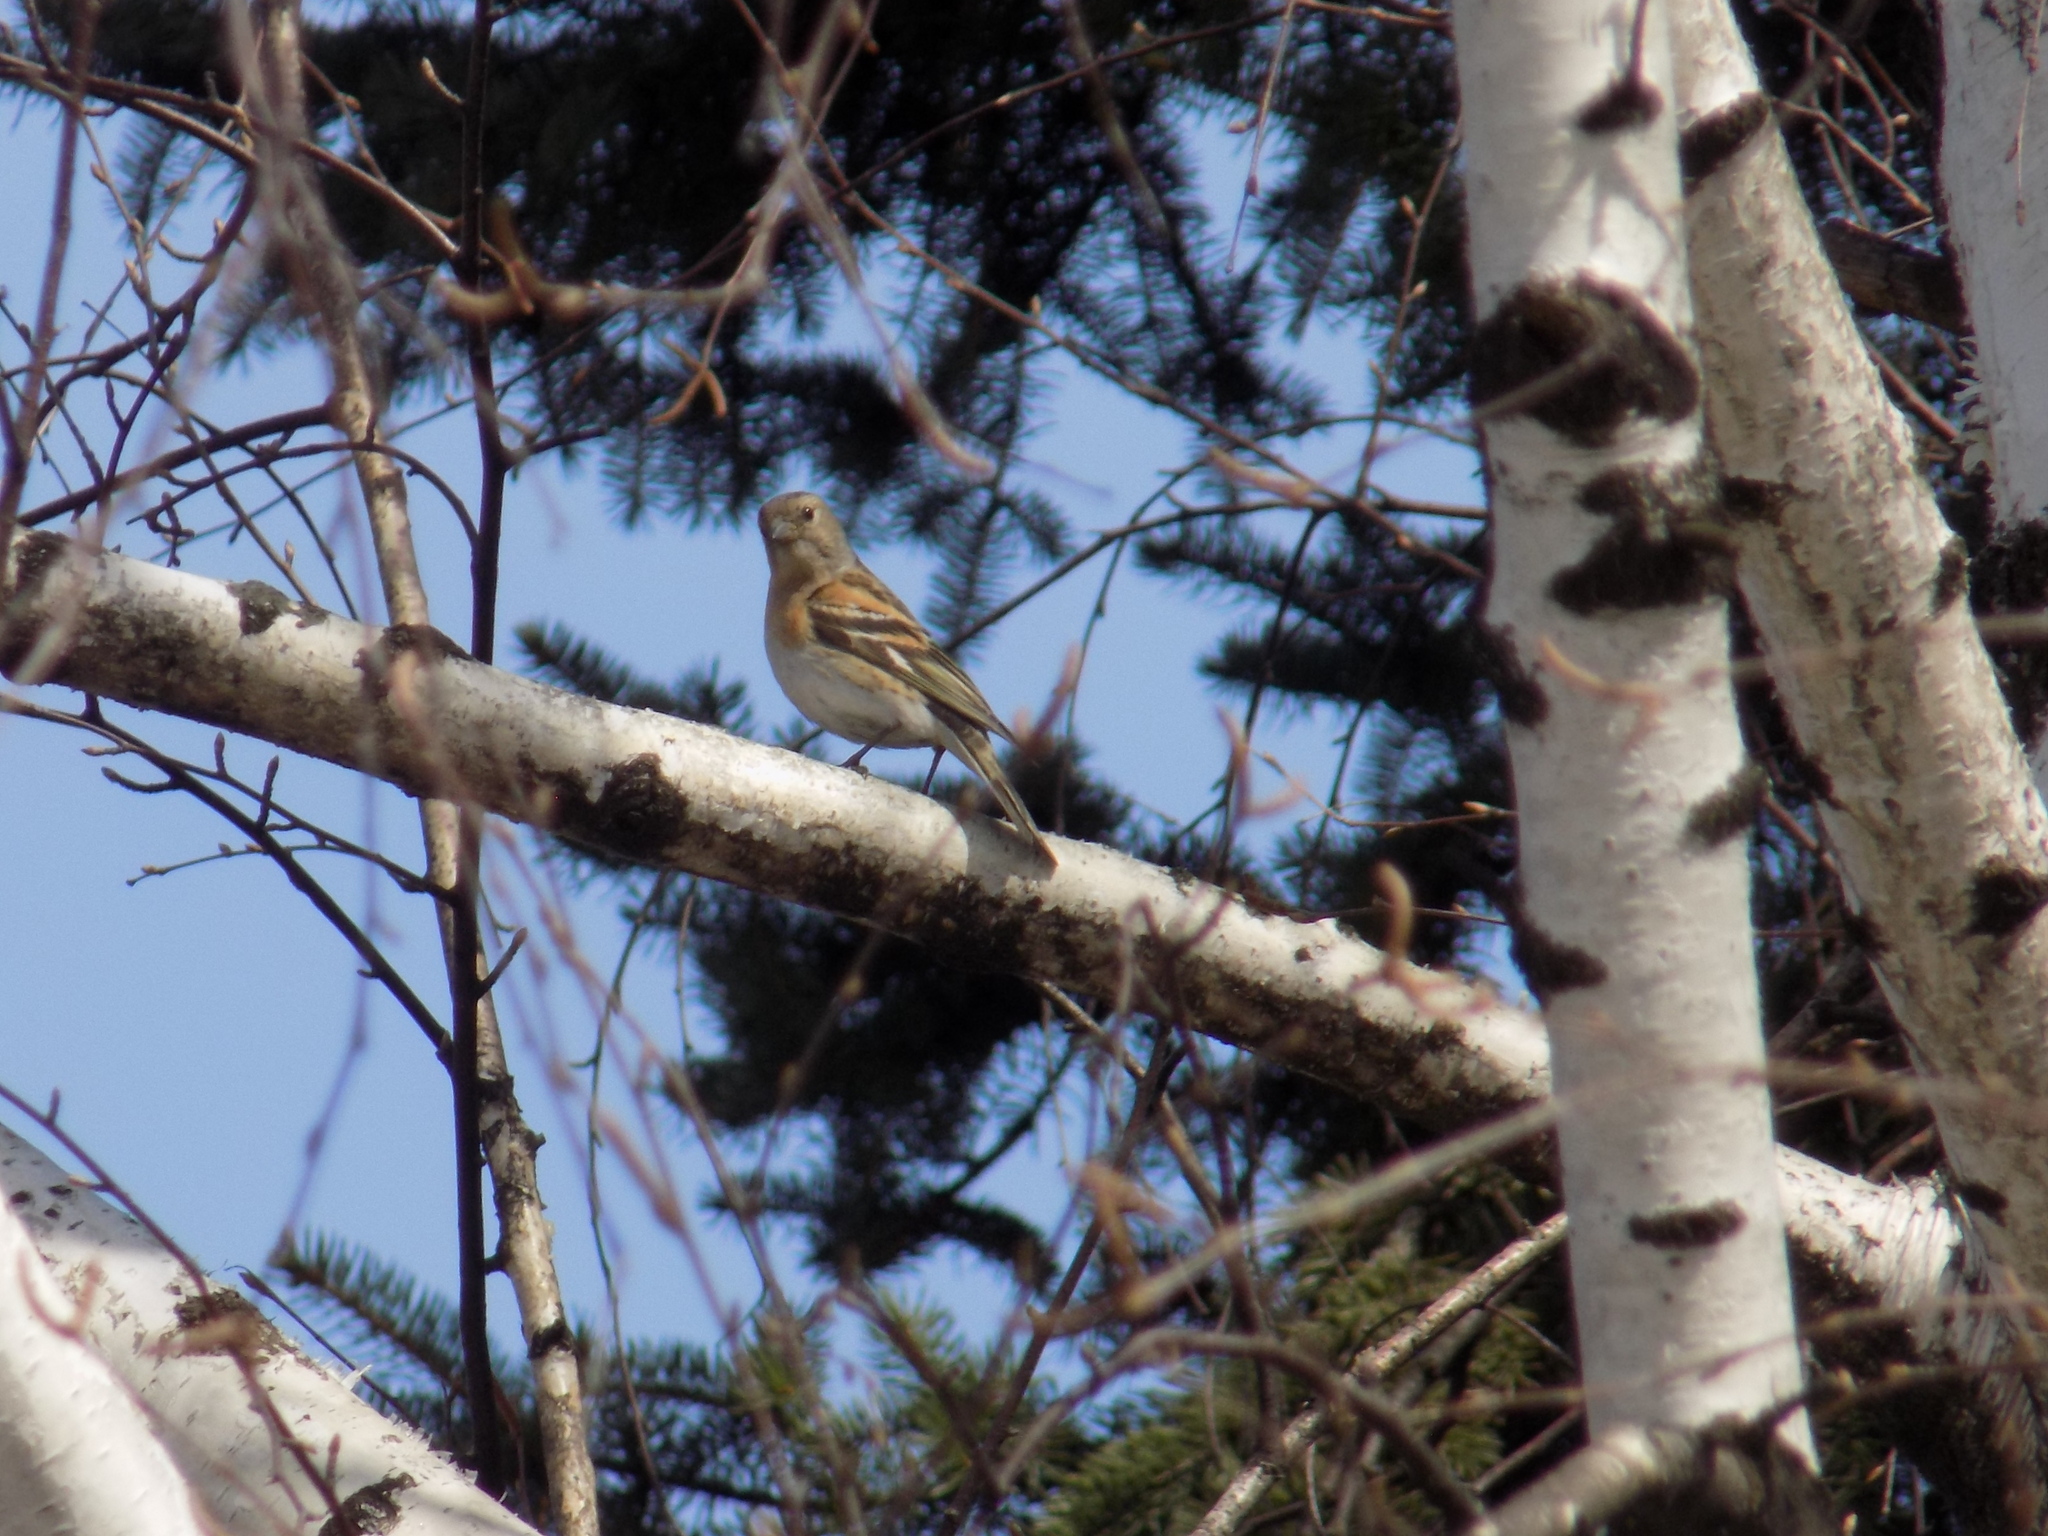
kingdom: Animalia
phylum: Chordata
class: Aves
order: Passeriformes
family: Fringillidae
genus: Fringilla
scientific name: Fringilla montifringilla
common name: Brambling
